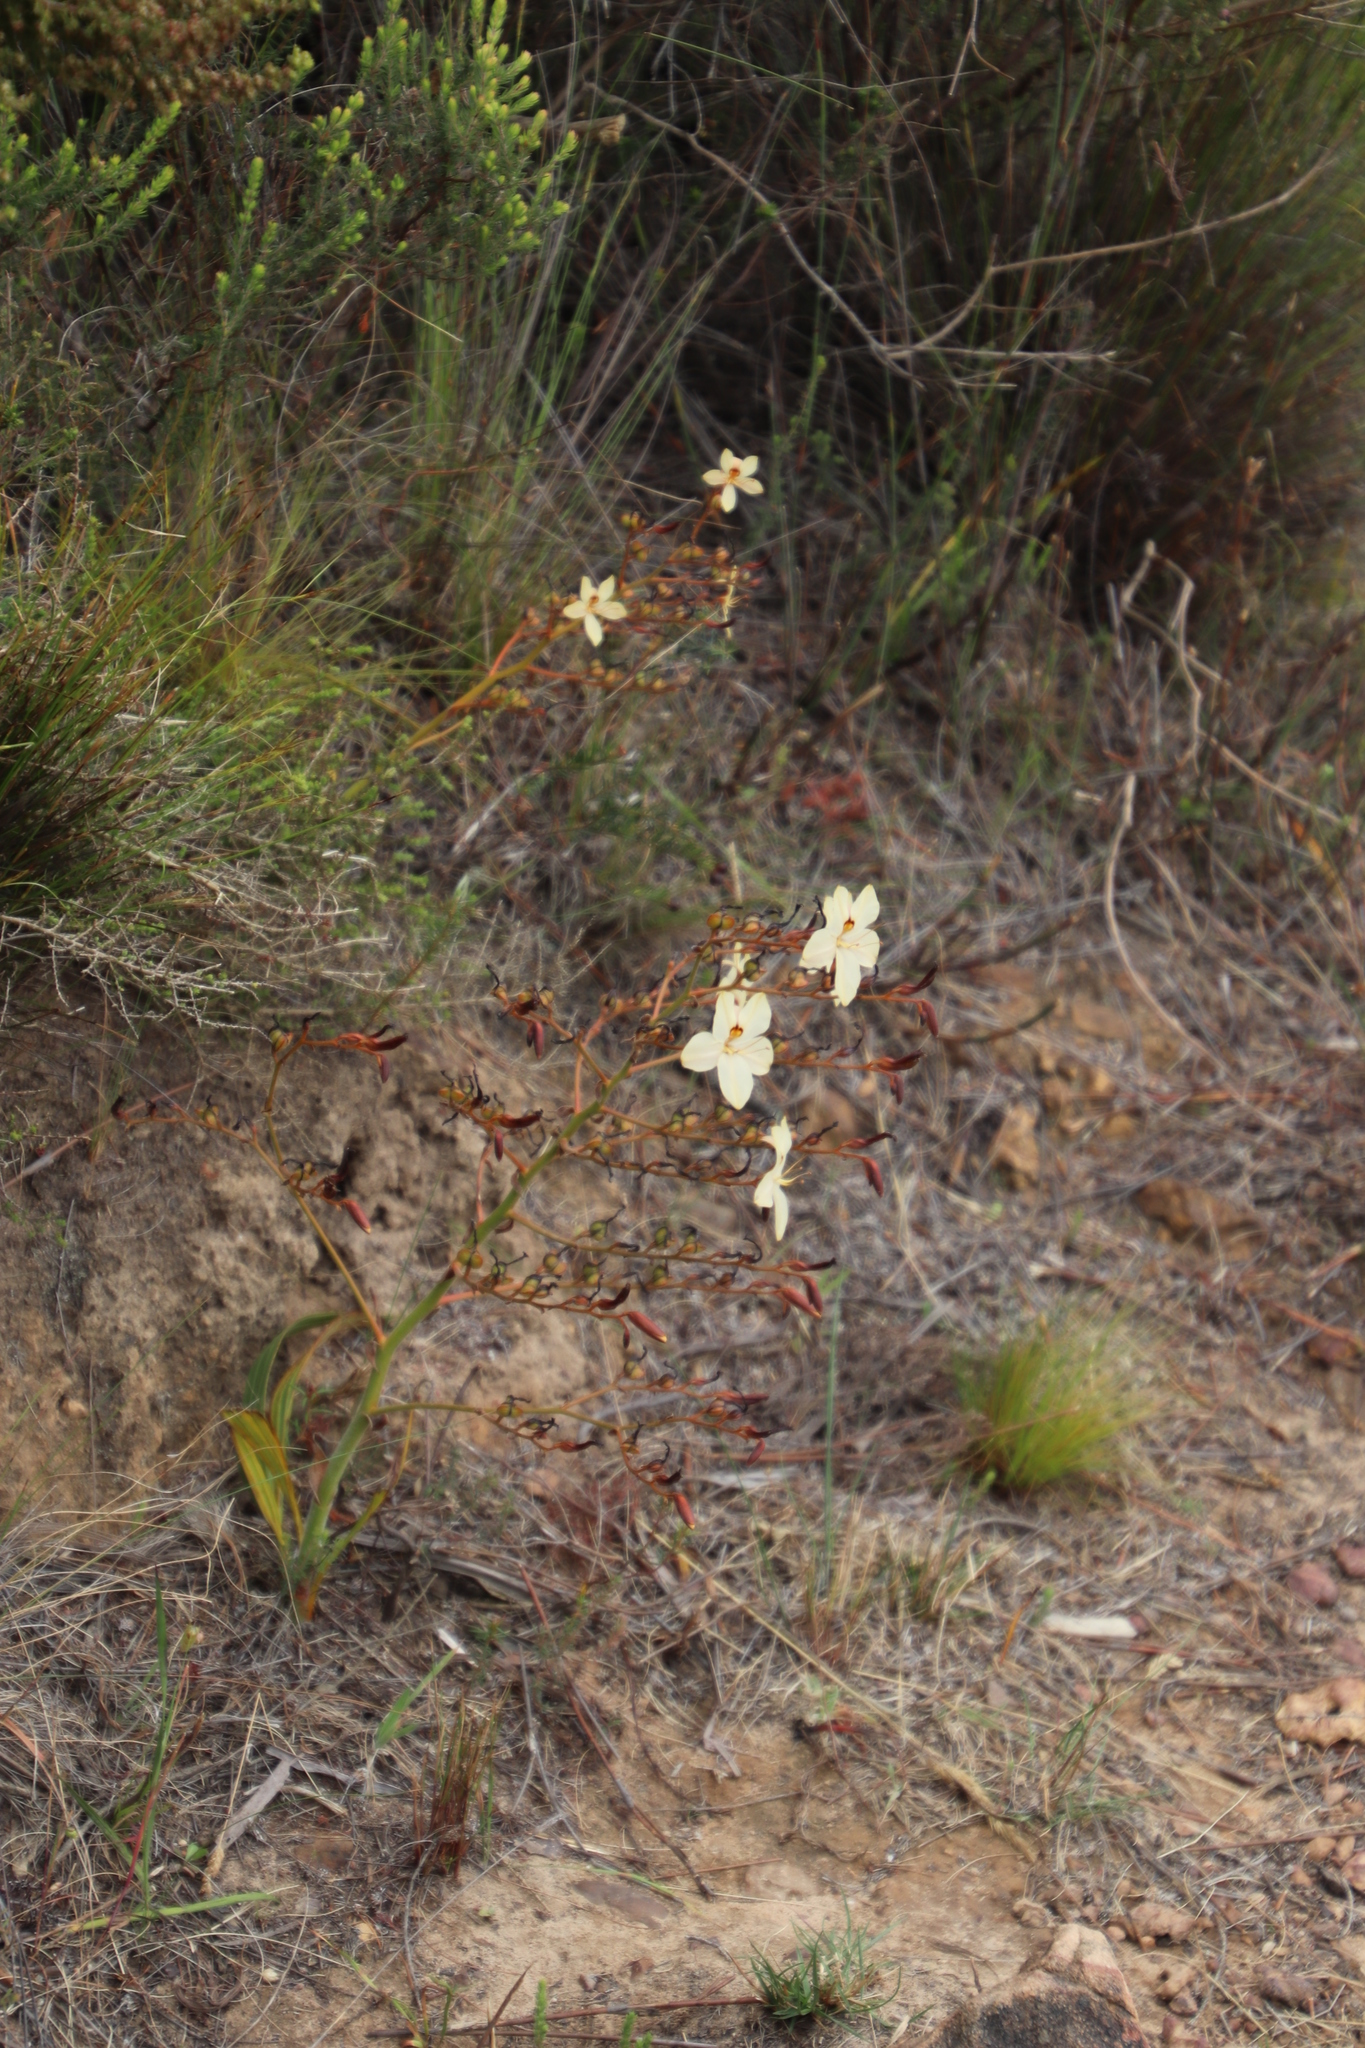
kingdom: Plantae
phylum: Tracheophyta
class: Liliopsida
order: Commelinales
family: Haemodoraceae
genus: Wachendorfia
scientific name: Wachendorfia paniculata
